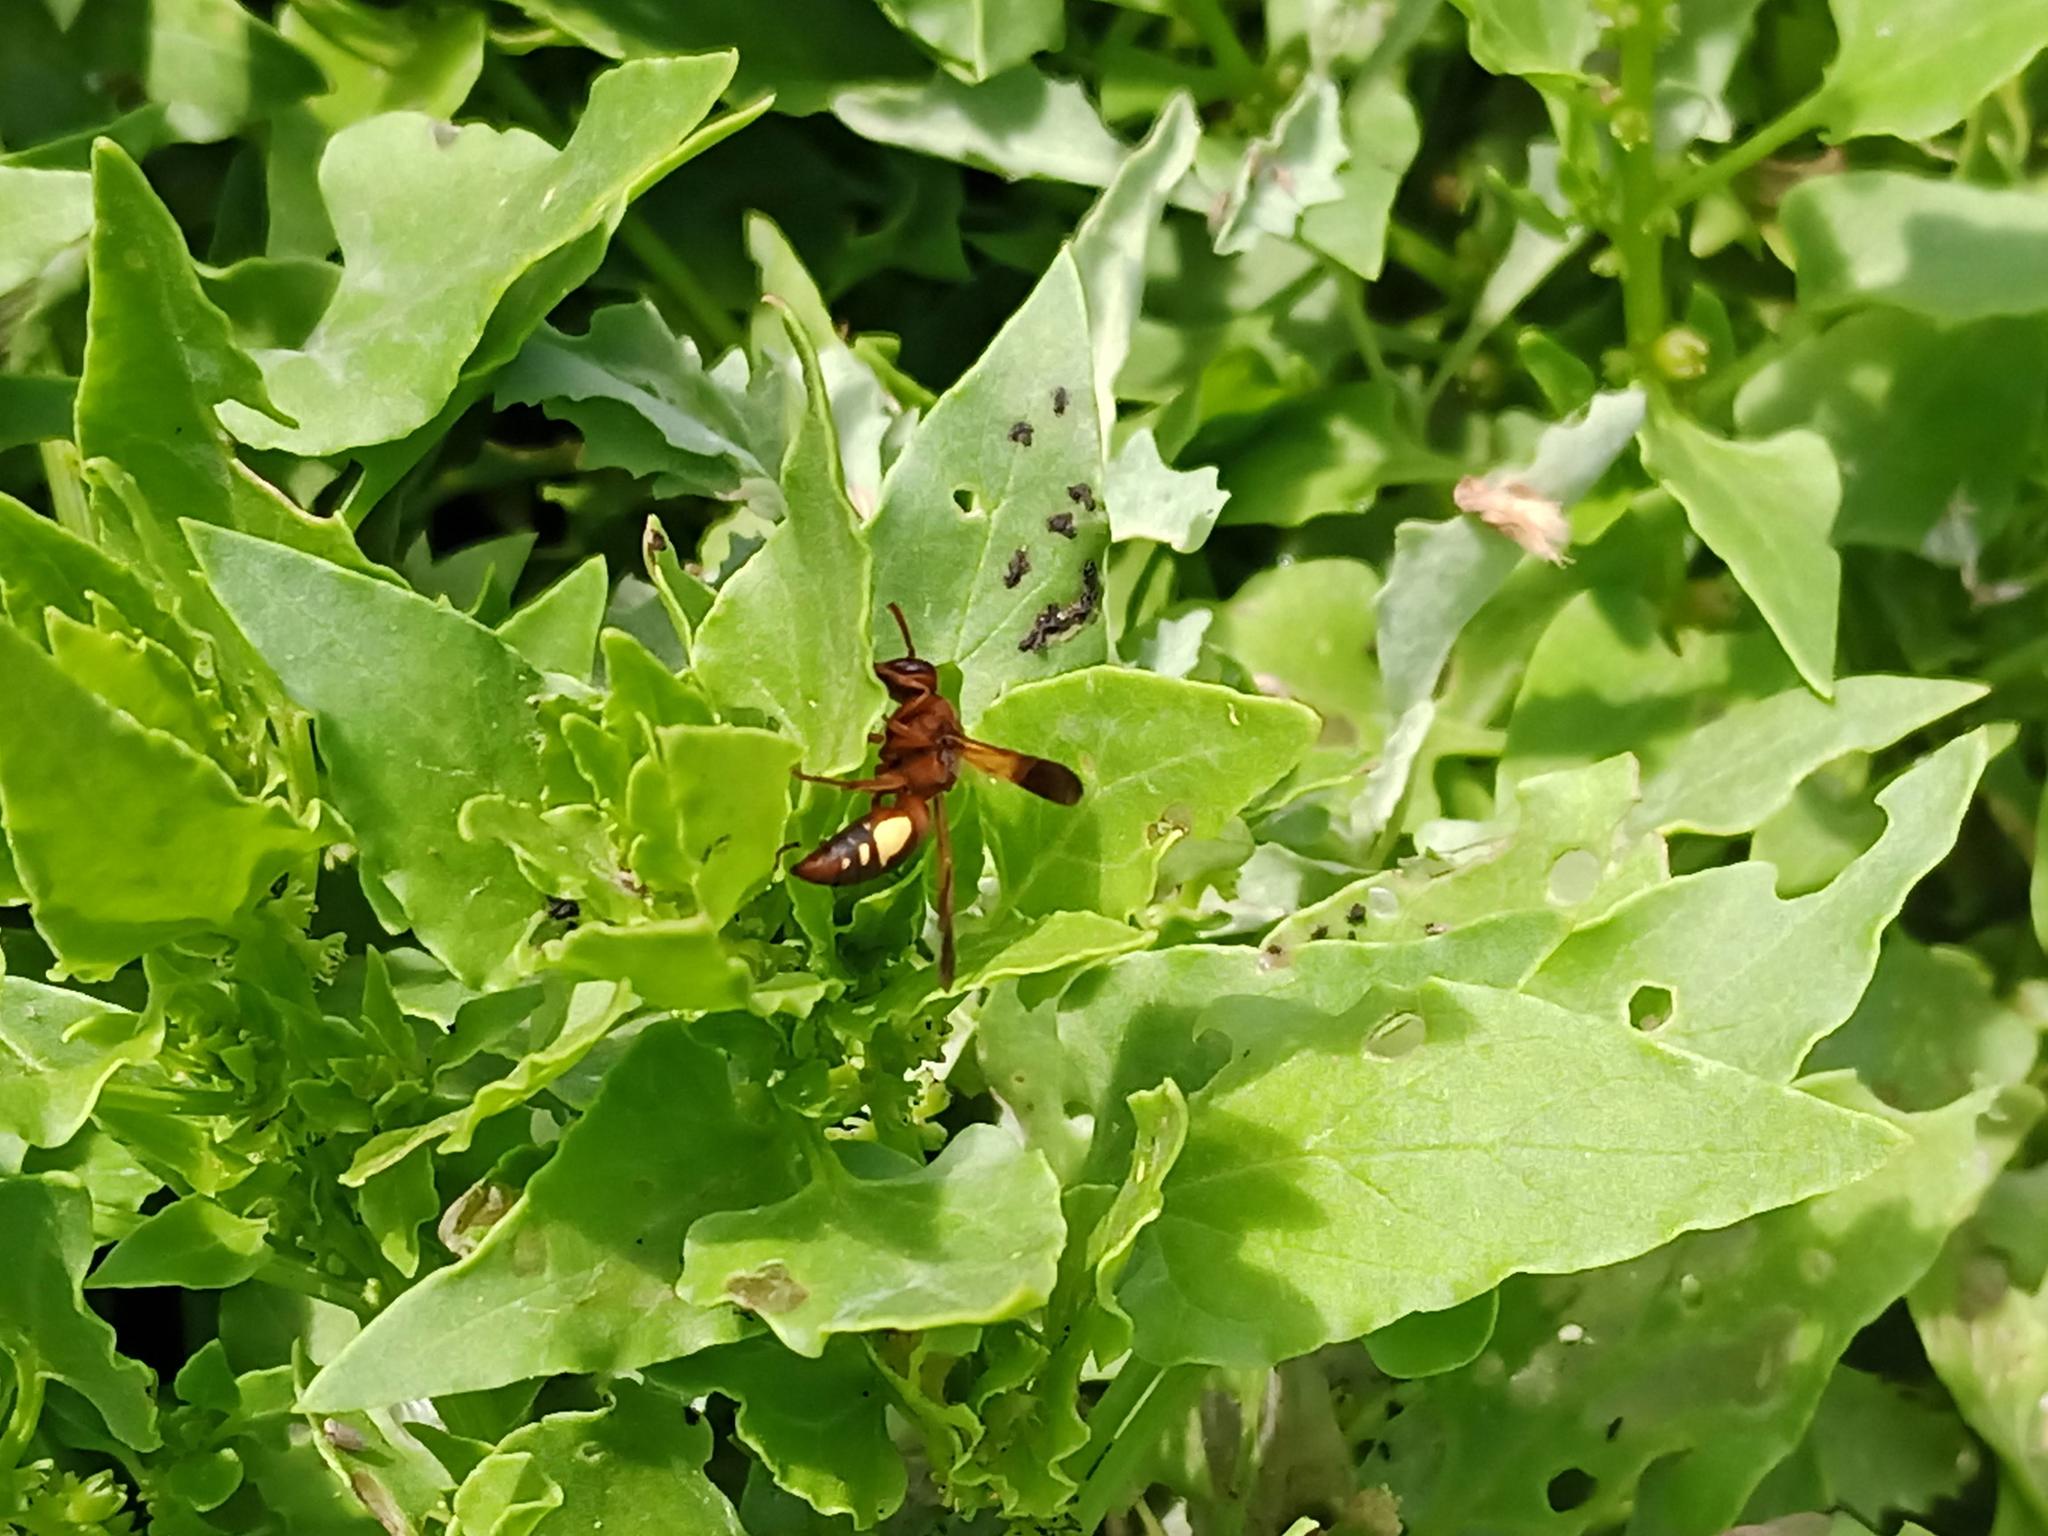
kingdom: Animalia
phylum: Arthropoda
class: Insecta
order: Hymenoptera
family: Eumenidae
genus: Rhynchium
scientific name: Rhynchium oculatum
